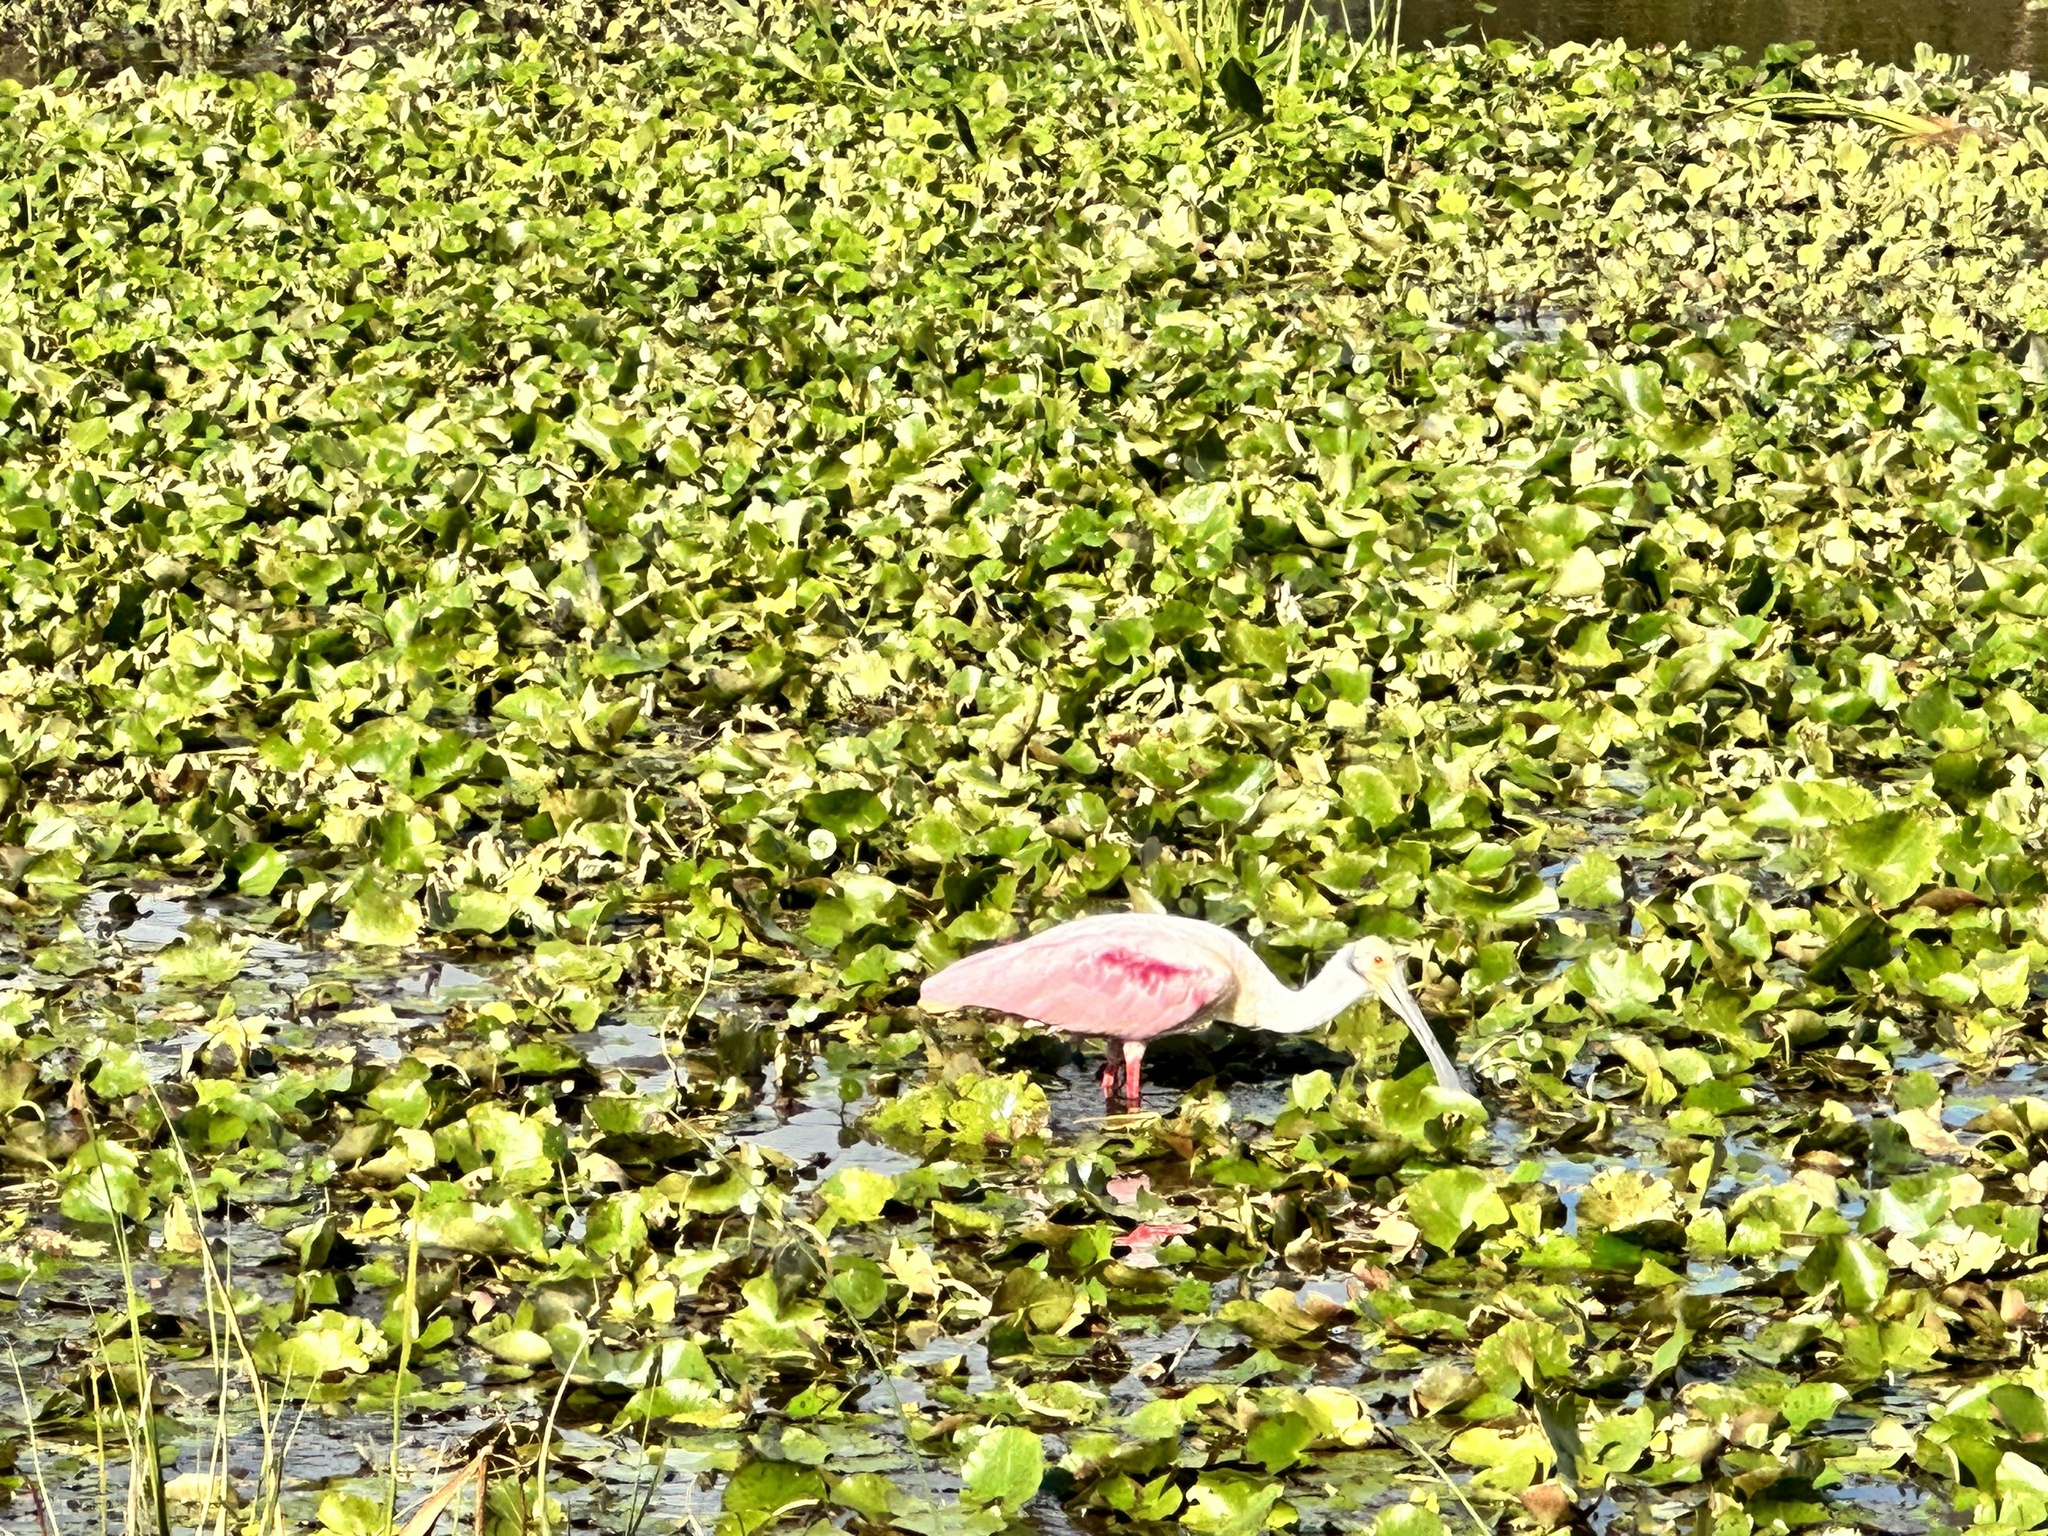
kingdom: Animalia
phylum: Chordata
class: Aves
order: Pelecaniformes
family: Threskiornithidae
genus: Platalea
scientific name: Platalea ajaja
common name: Roseate spoonbill
